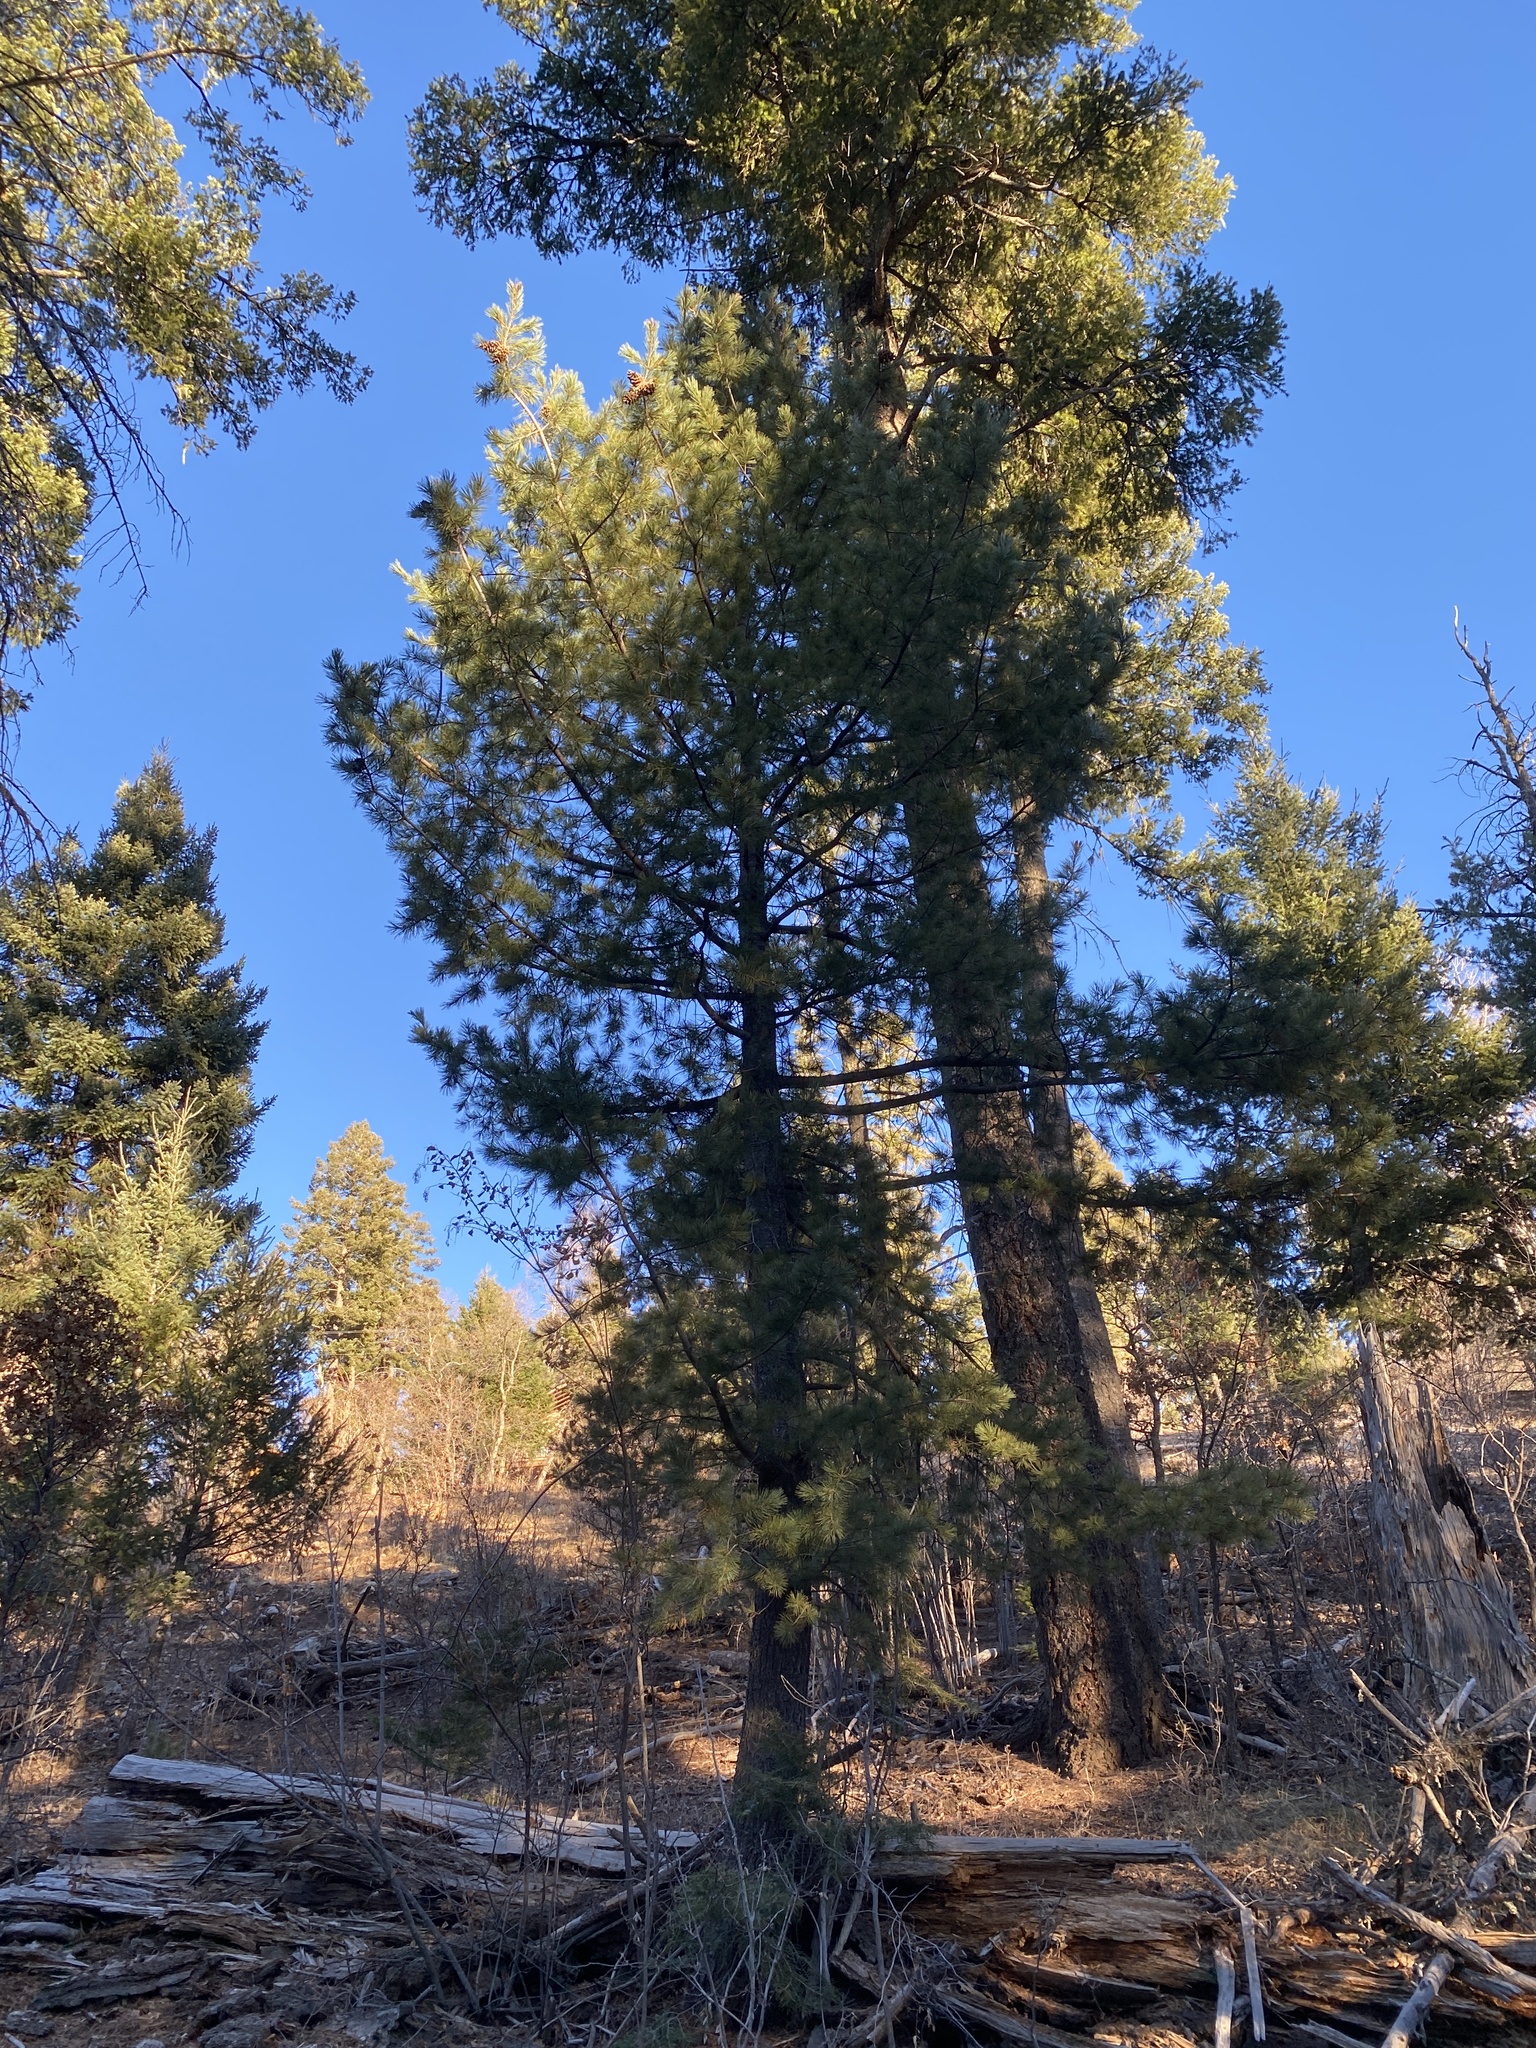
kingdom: Plantae
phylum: Tracheophyta
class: Pinopsida
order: Pinales
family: Pinaceae
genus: Pinus
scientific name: Pinus strobiformis
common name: Southwestern white pine
